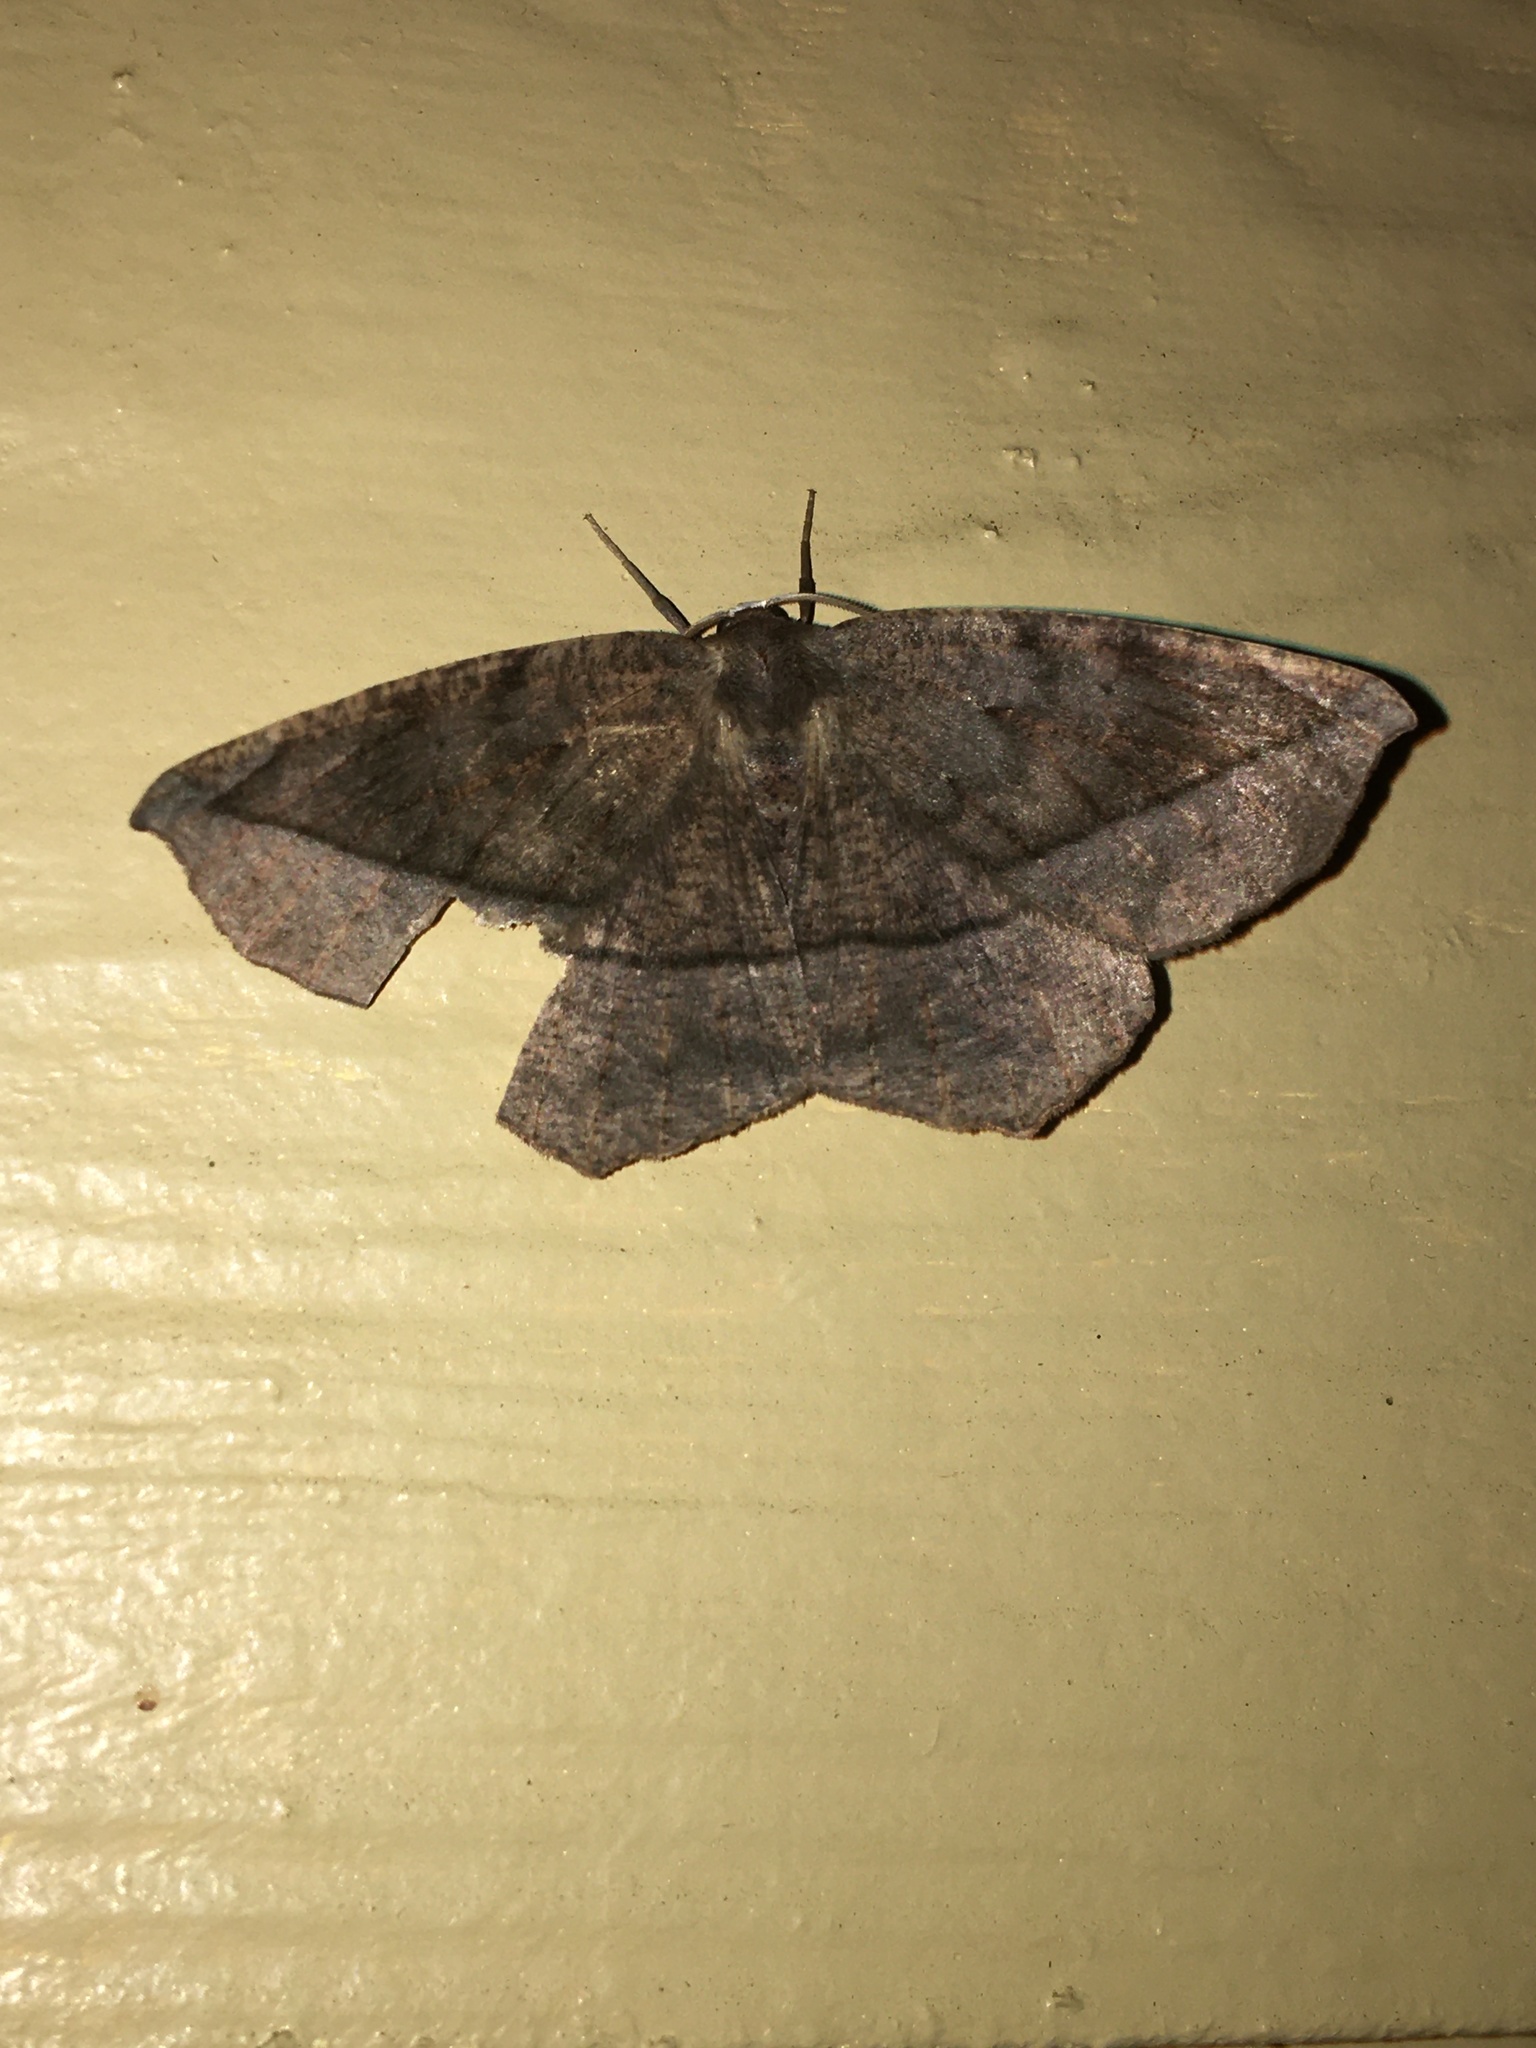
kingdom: Animalia
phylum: Arthropoda
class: Insecta
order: Lepidoptera
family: Geometridae
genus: Eutrapela
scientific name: Eutrapela clemataria
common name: Curved-toothed geometer
